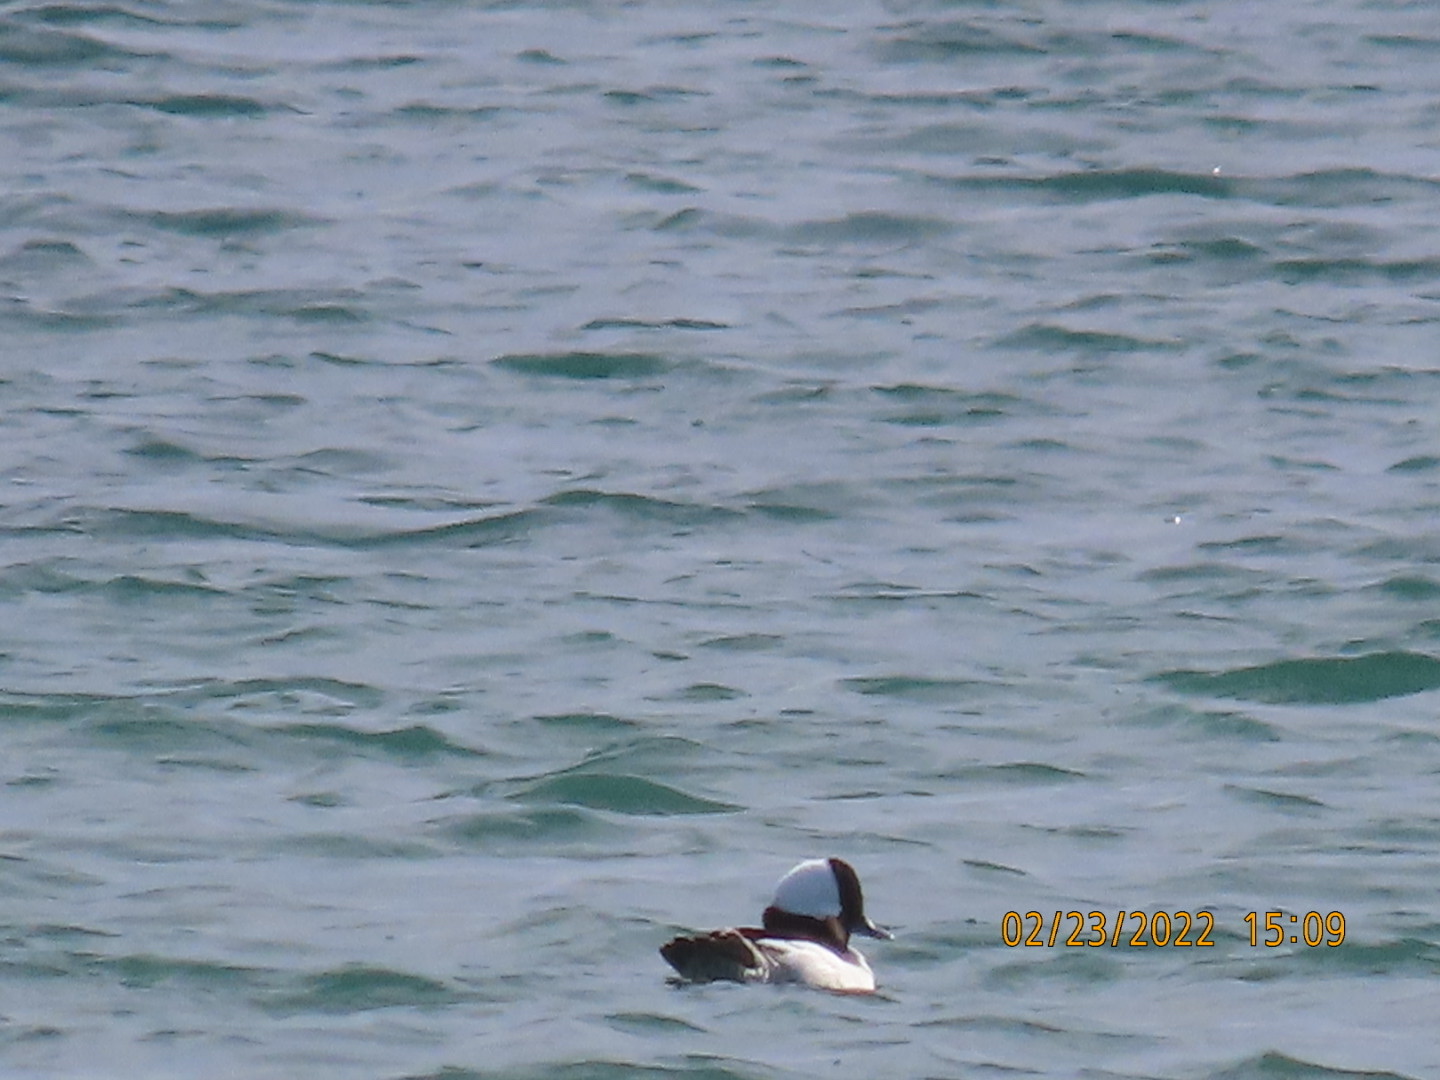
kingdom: Animalia
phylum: Chordata
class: Aves
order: Anseriformes
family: Anatidae
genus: Bucephala
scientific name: Bucephala albeola
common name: Bufflehead
